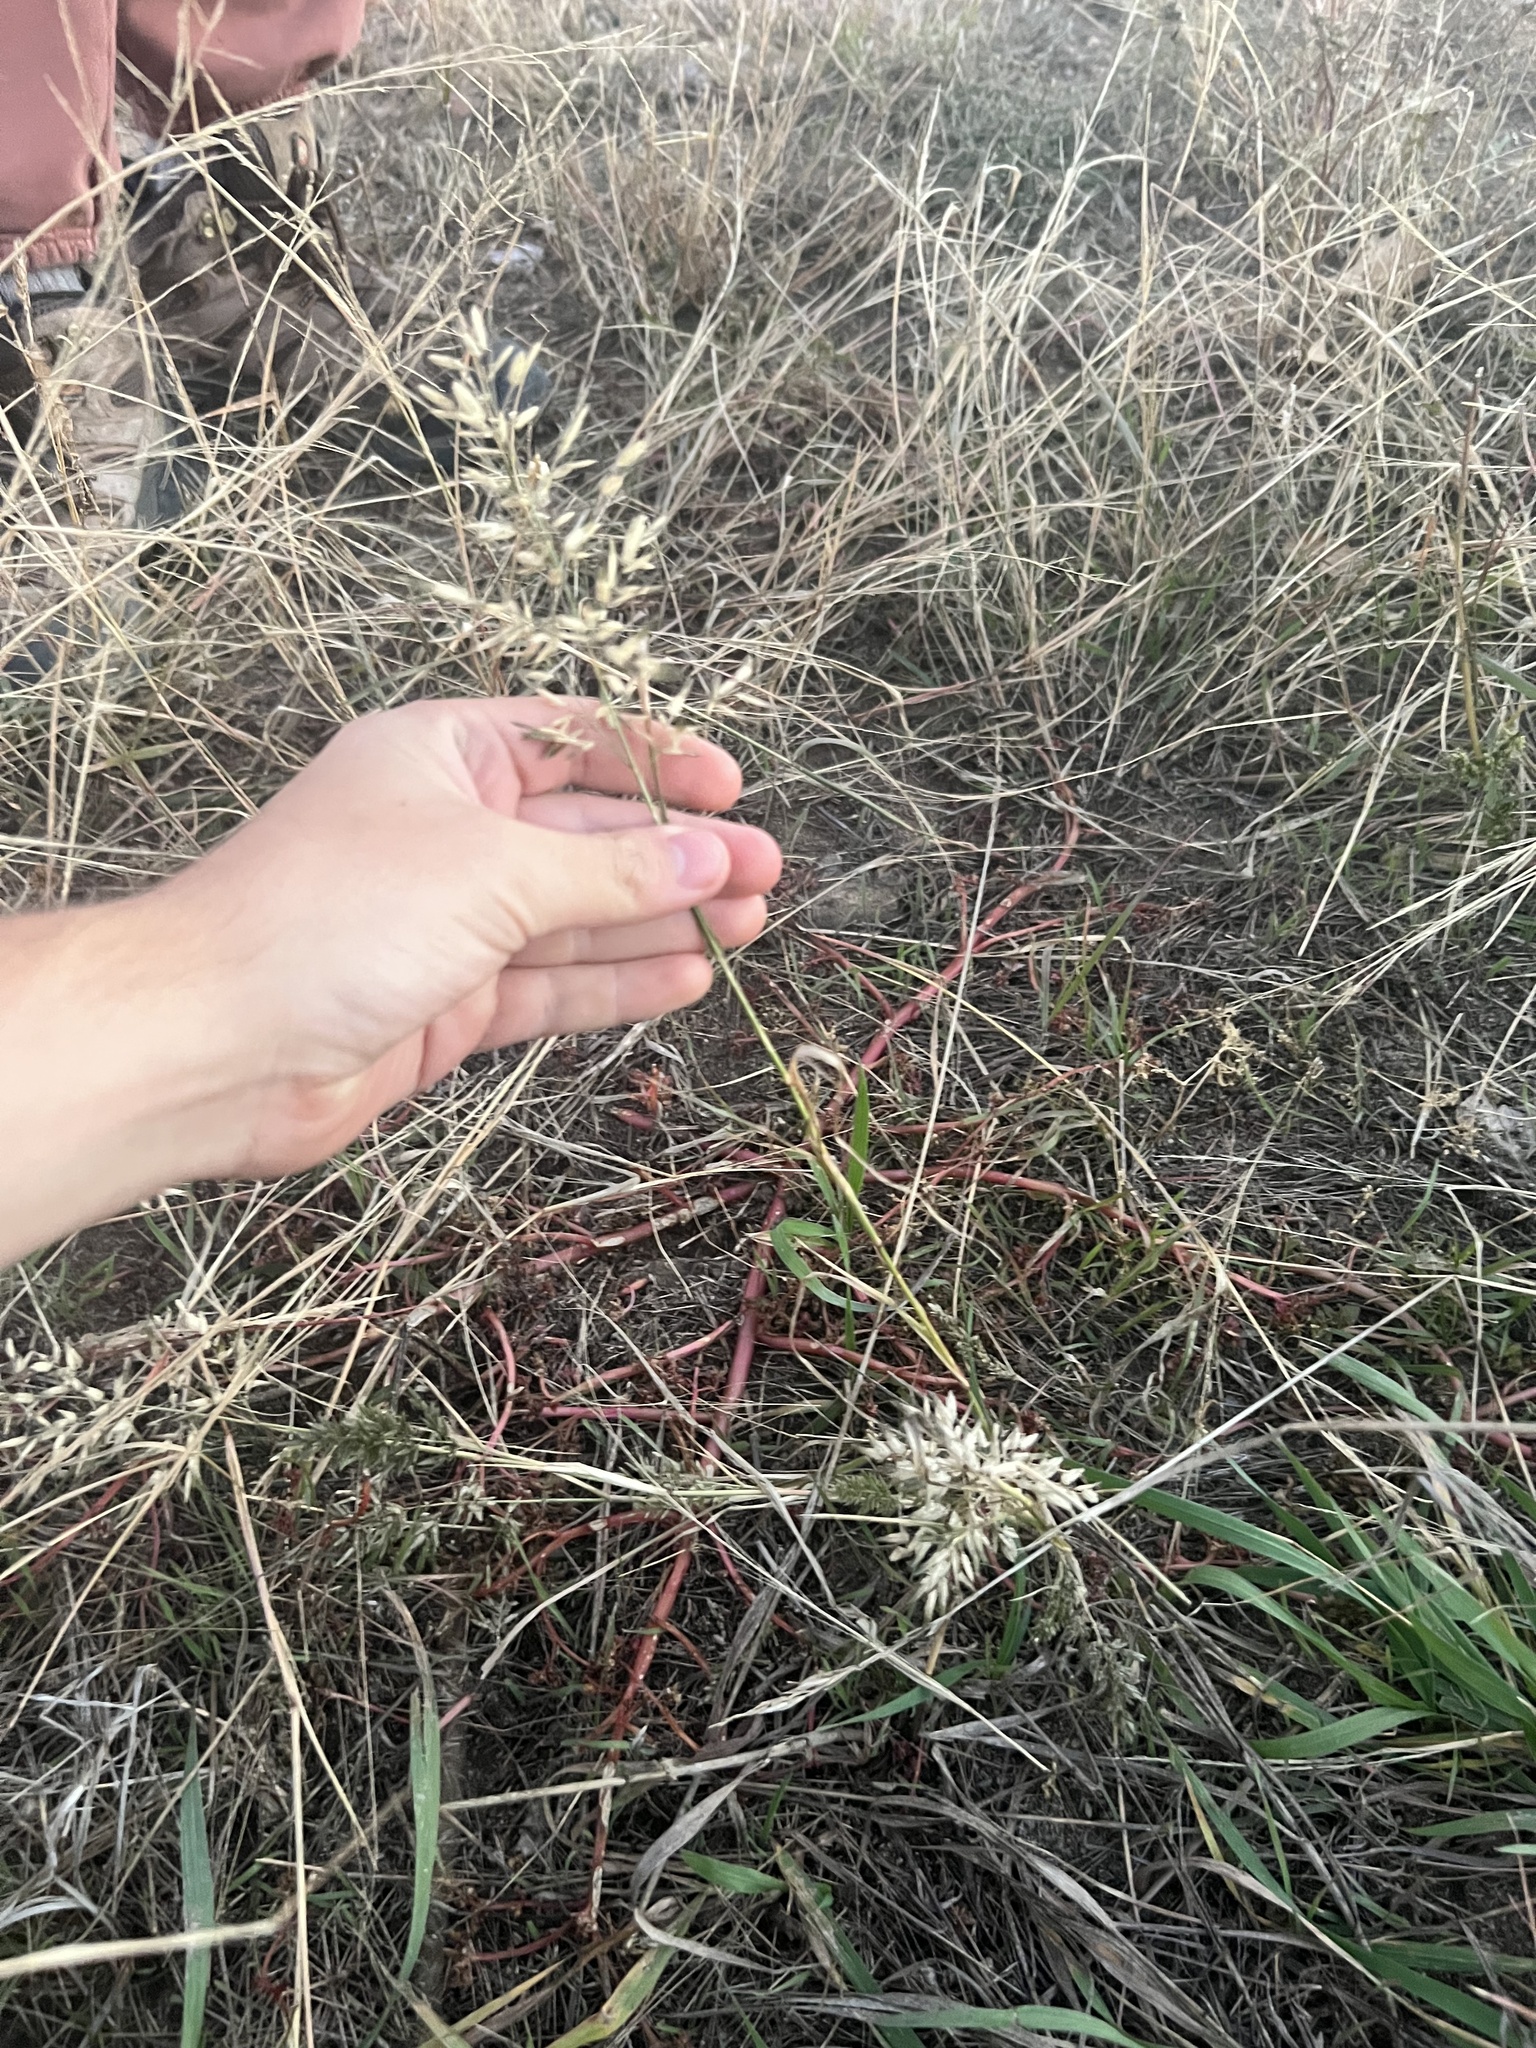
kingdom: Plantae
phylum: Tracheophyta
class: Liliopsida
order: Poales
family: Poaceae
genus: Eragrostis
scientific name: Eragrostis cilianensis
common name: Stinkgrass
